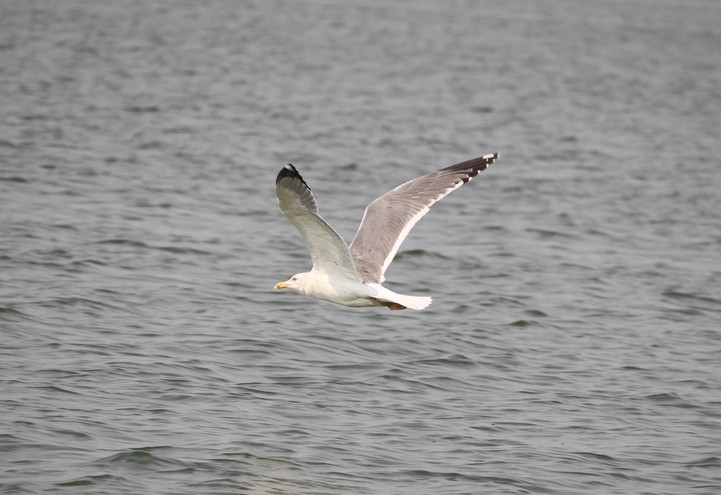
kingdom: Animalia
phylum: Chordata
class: Aves
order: Charadriiformes
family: Laridae
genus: Larus
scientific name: Larus fuscus
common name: Lesser black-backed gull
